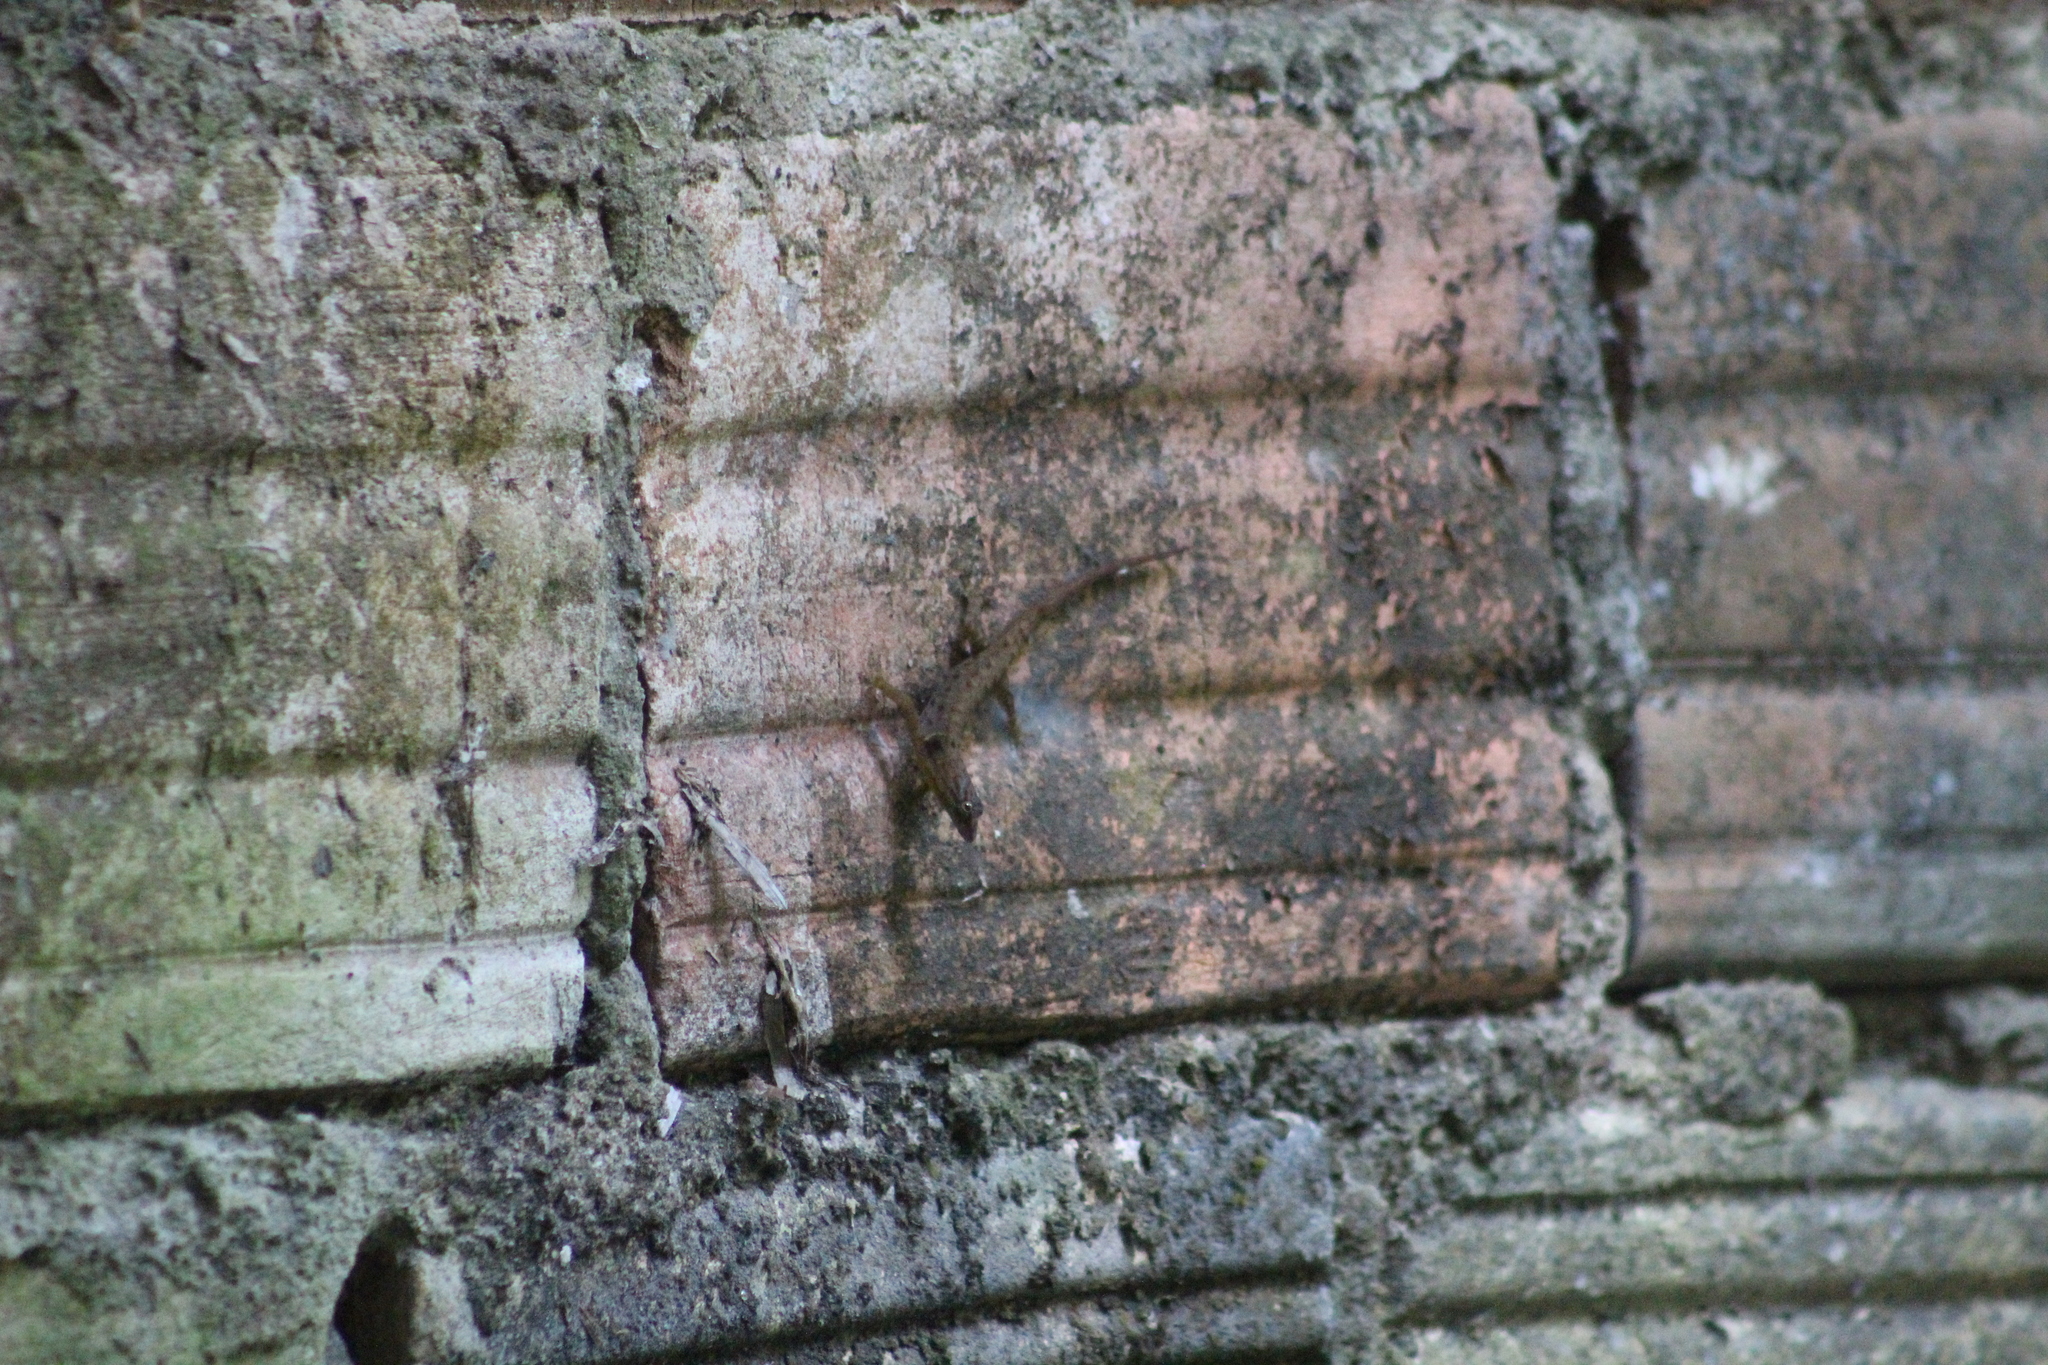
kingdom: Animalia
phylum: Chordata
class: Squamata
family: Sphaerodactylidae
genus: Gonatodes
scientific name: Gonatodes humeralis
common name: South american clawed gecko
